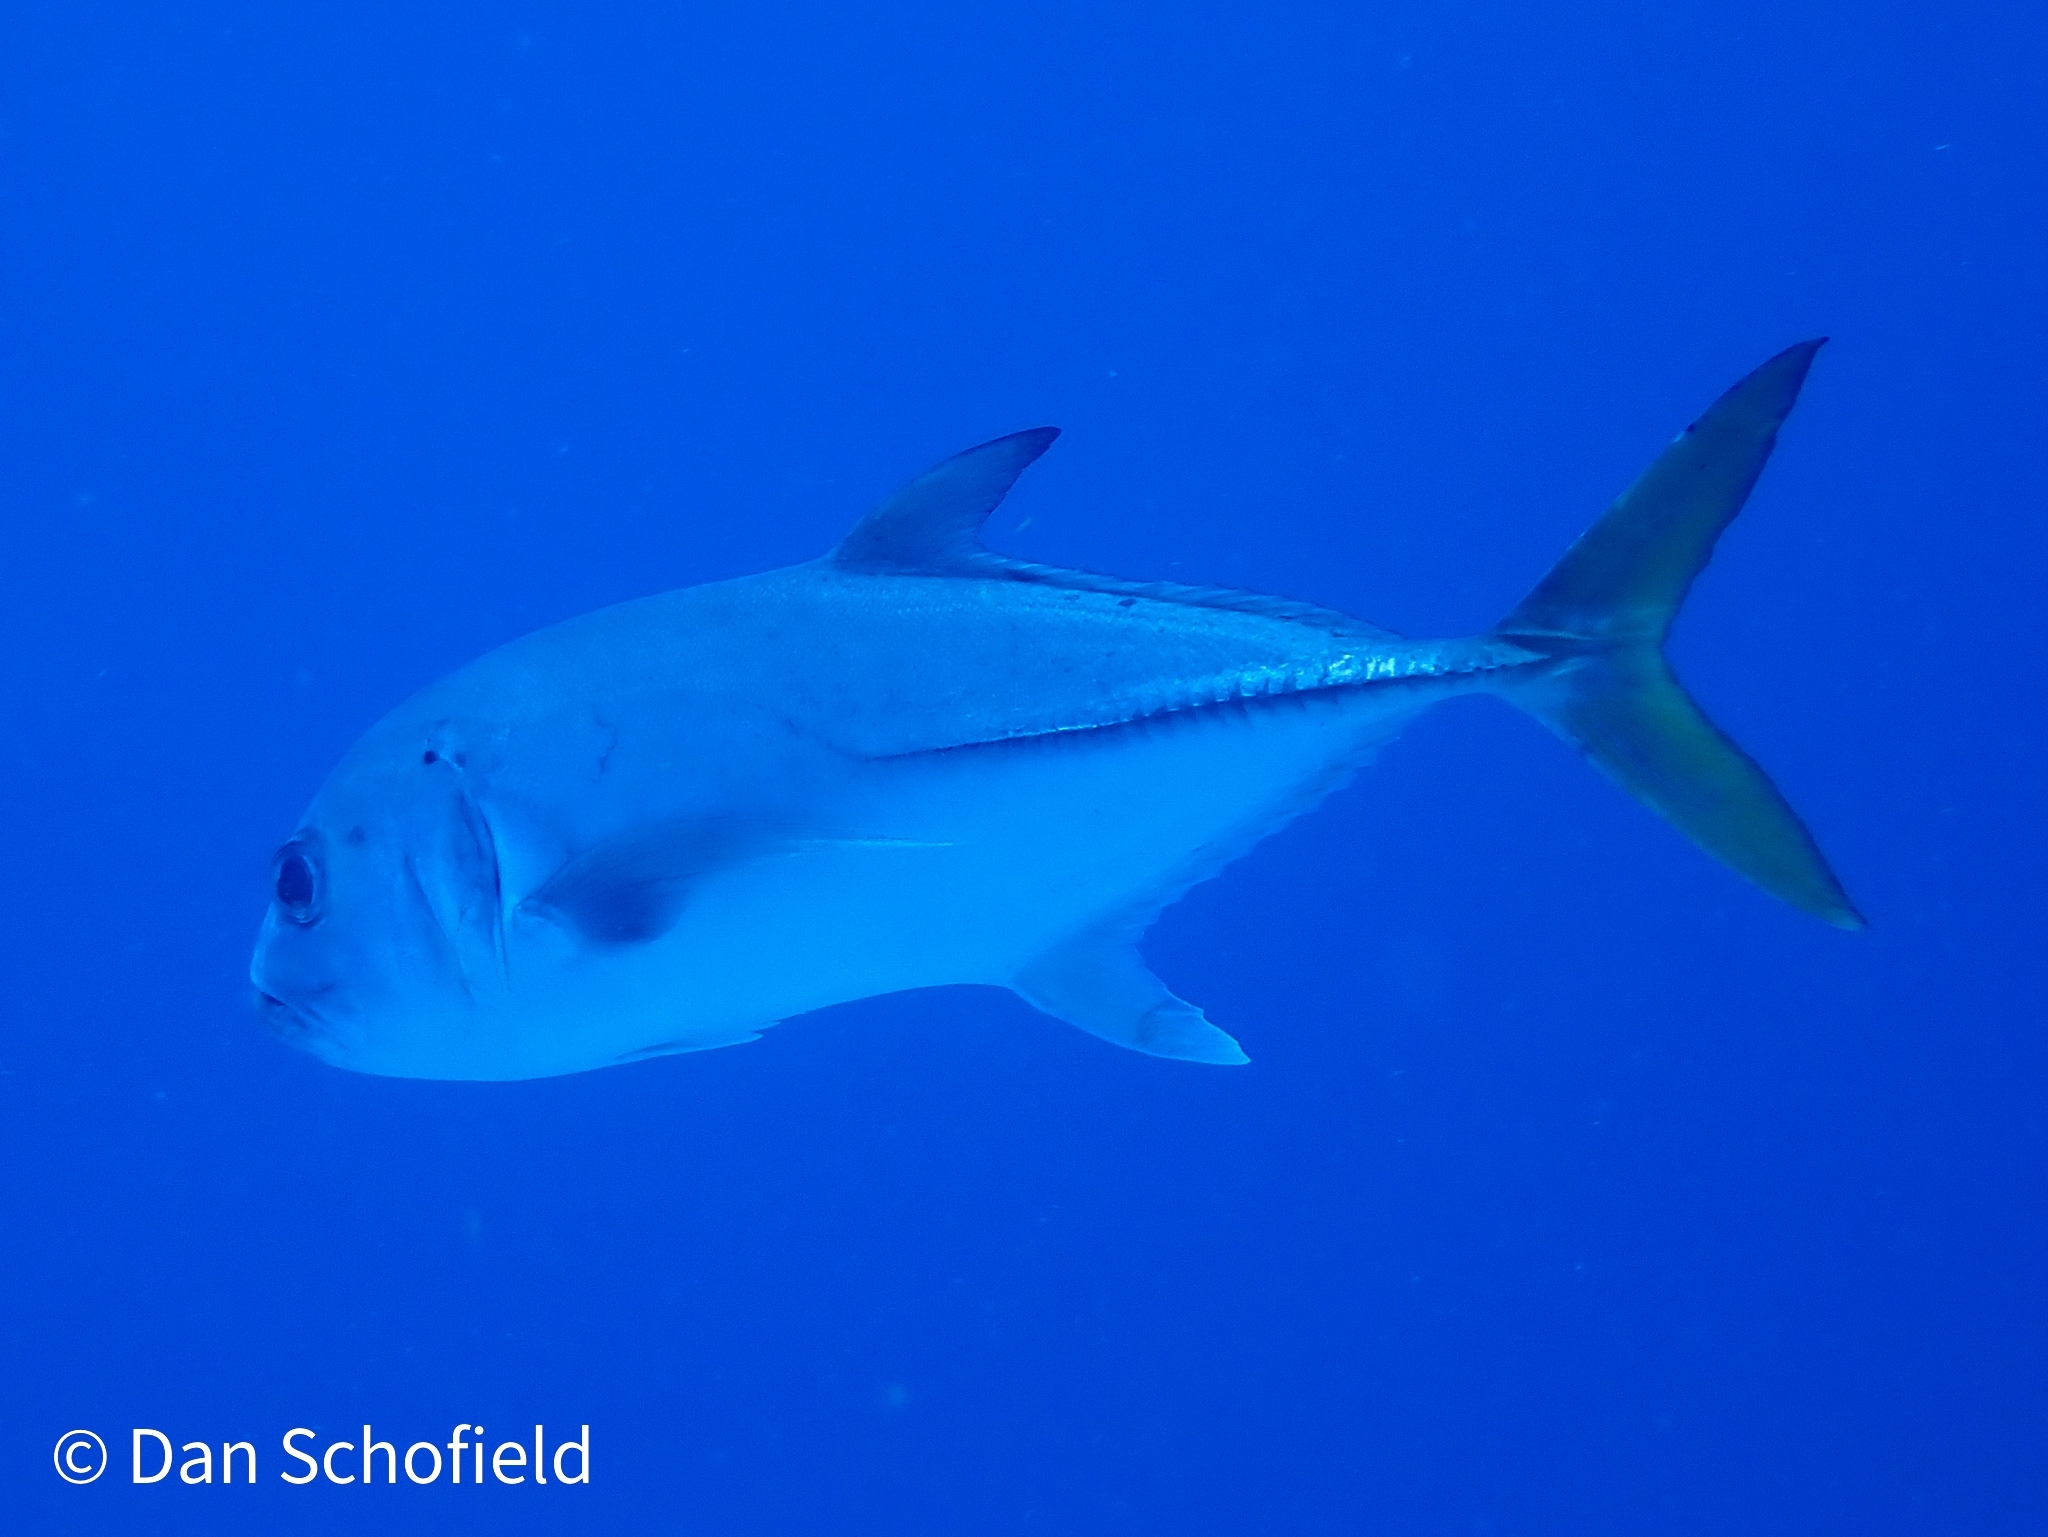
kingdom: Animalia
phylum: Chordata
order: Perciformes
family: Carangidae
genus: Caranx
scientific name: Caranx latus
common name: Horse eye jack
